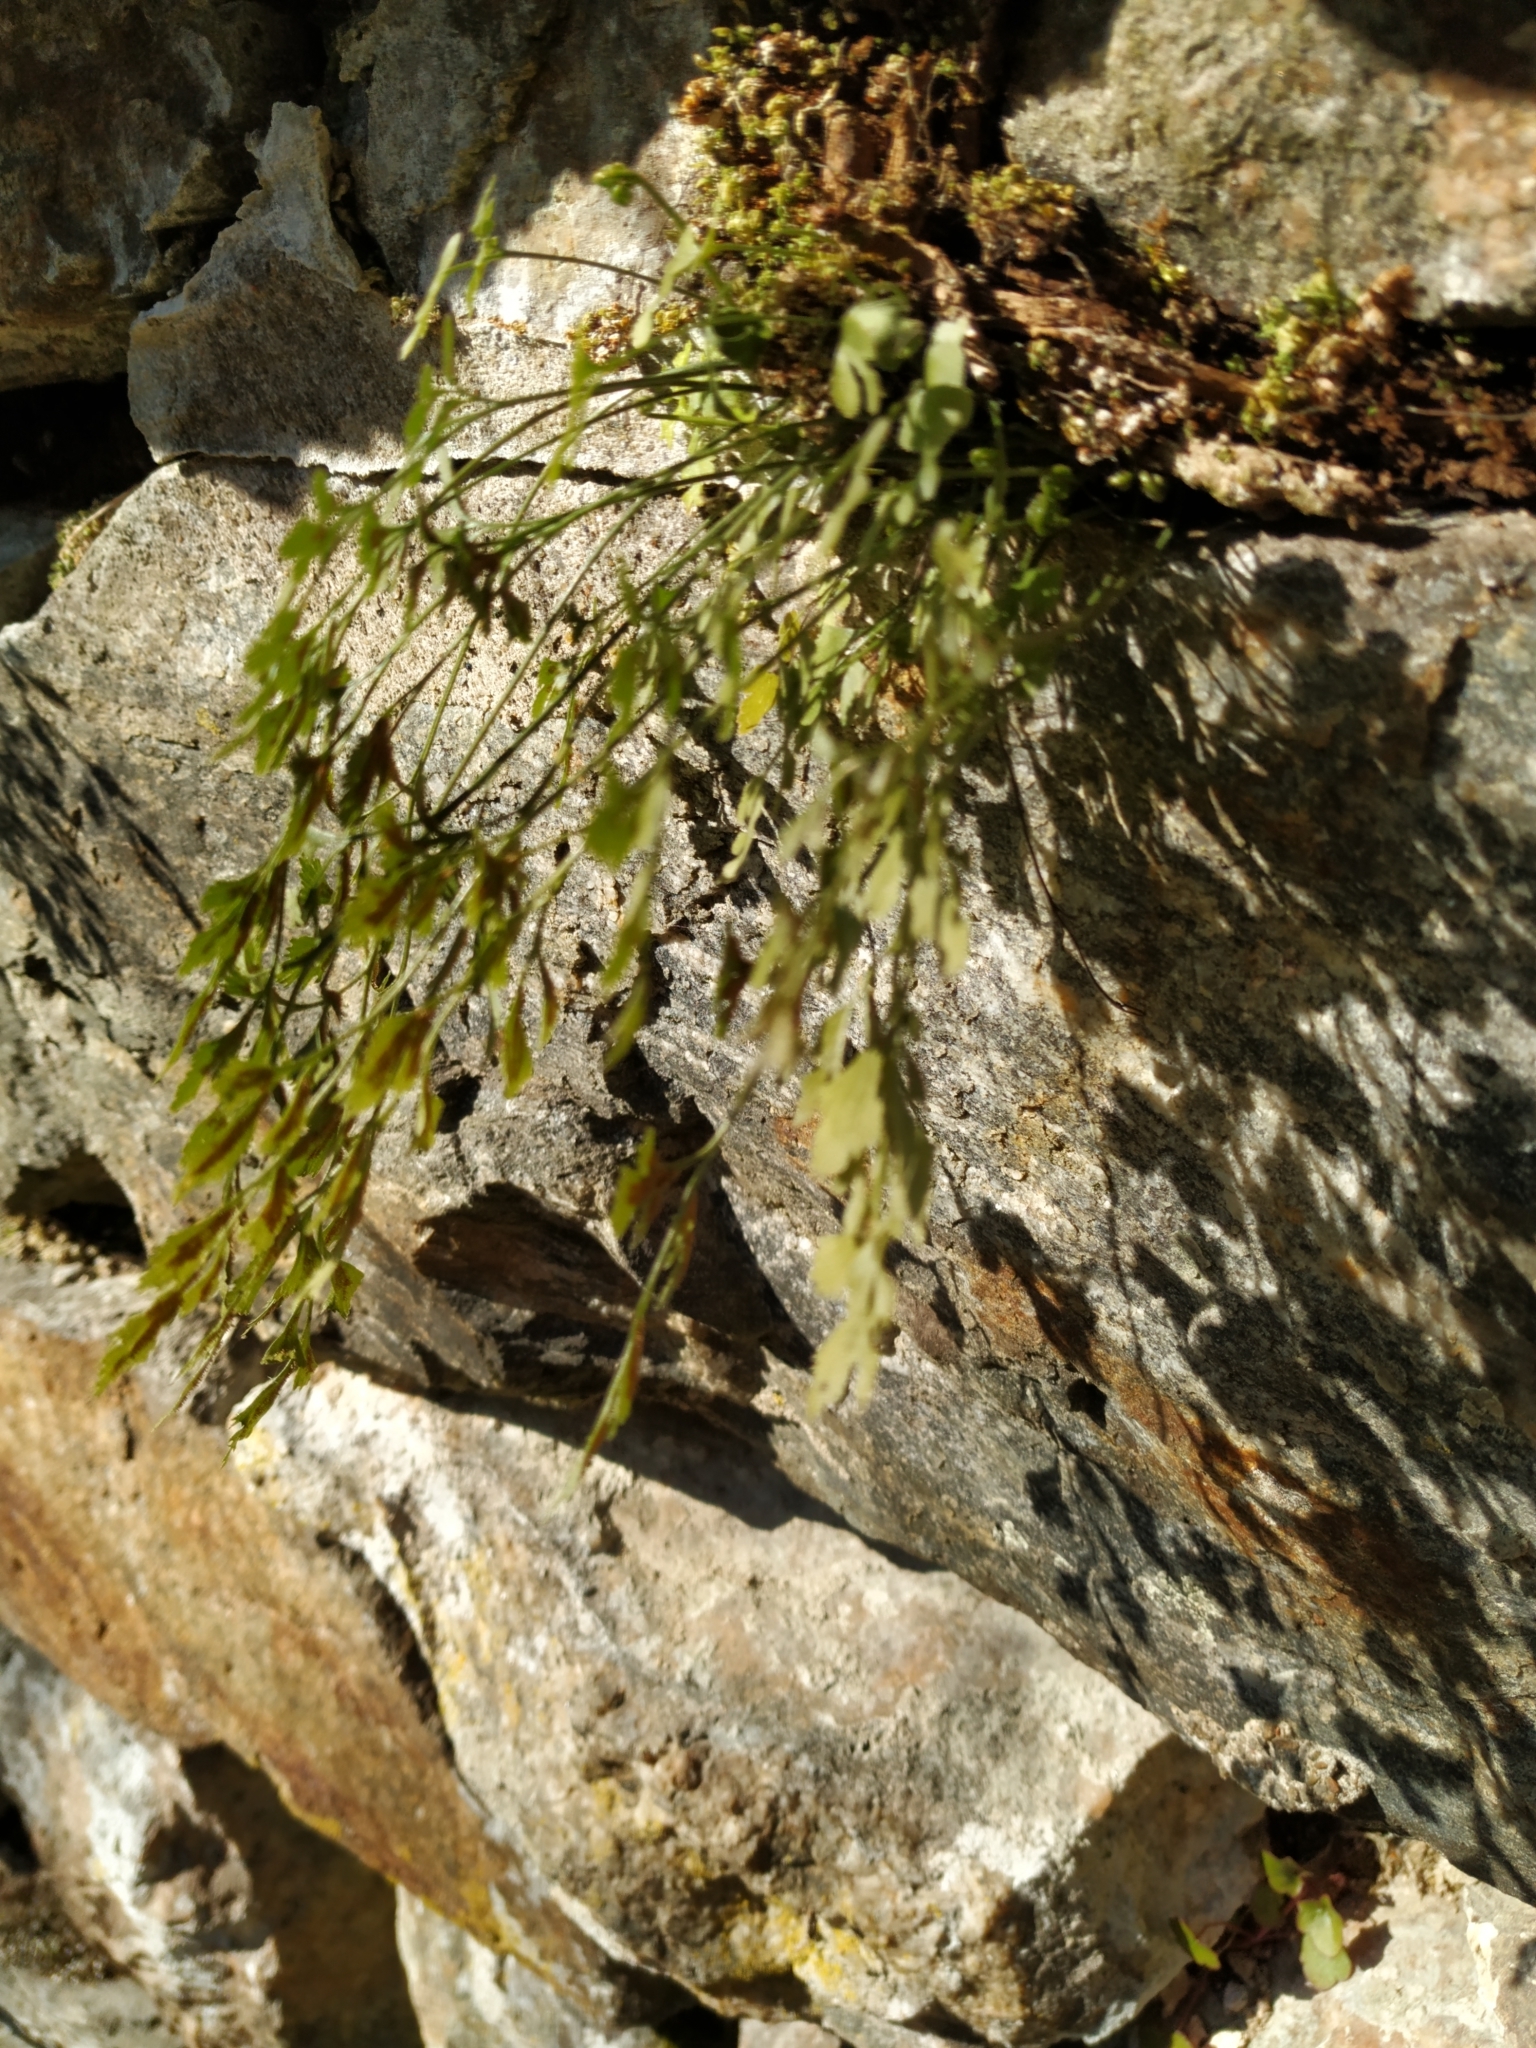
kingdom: Plantae
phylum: Tracheophyta
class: Polypodiopsida
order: Polypodiales
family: Aspleniaceae
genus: Asplenium
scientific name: Asplenium ruta-muraria
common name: Wall-rue
